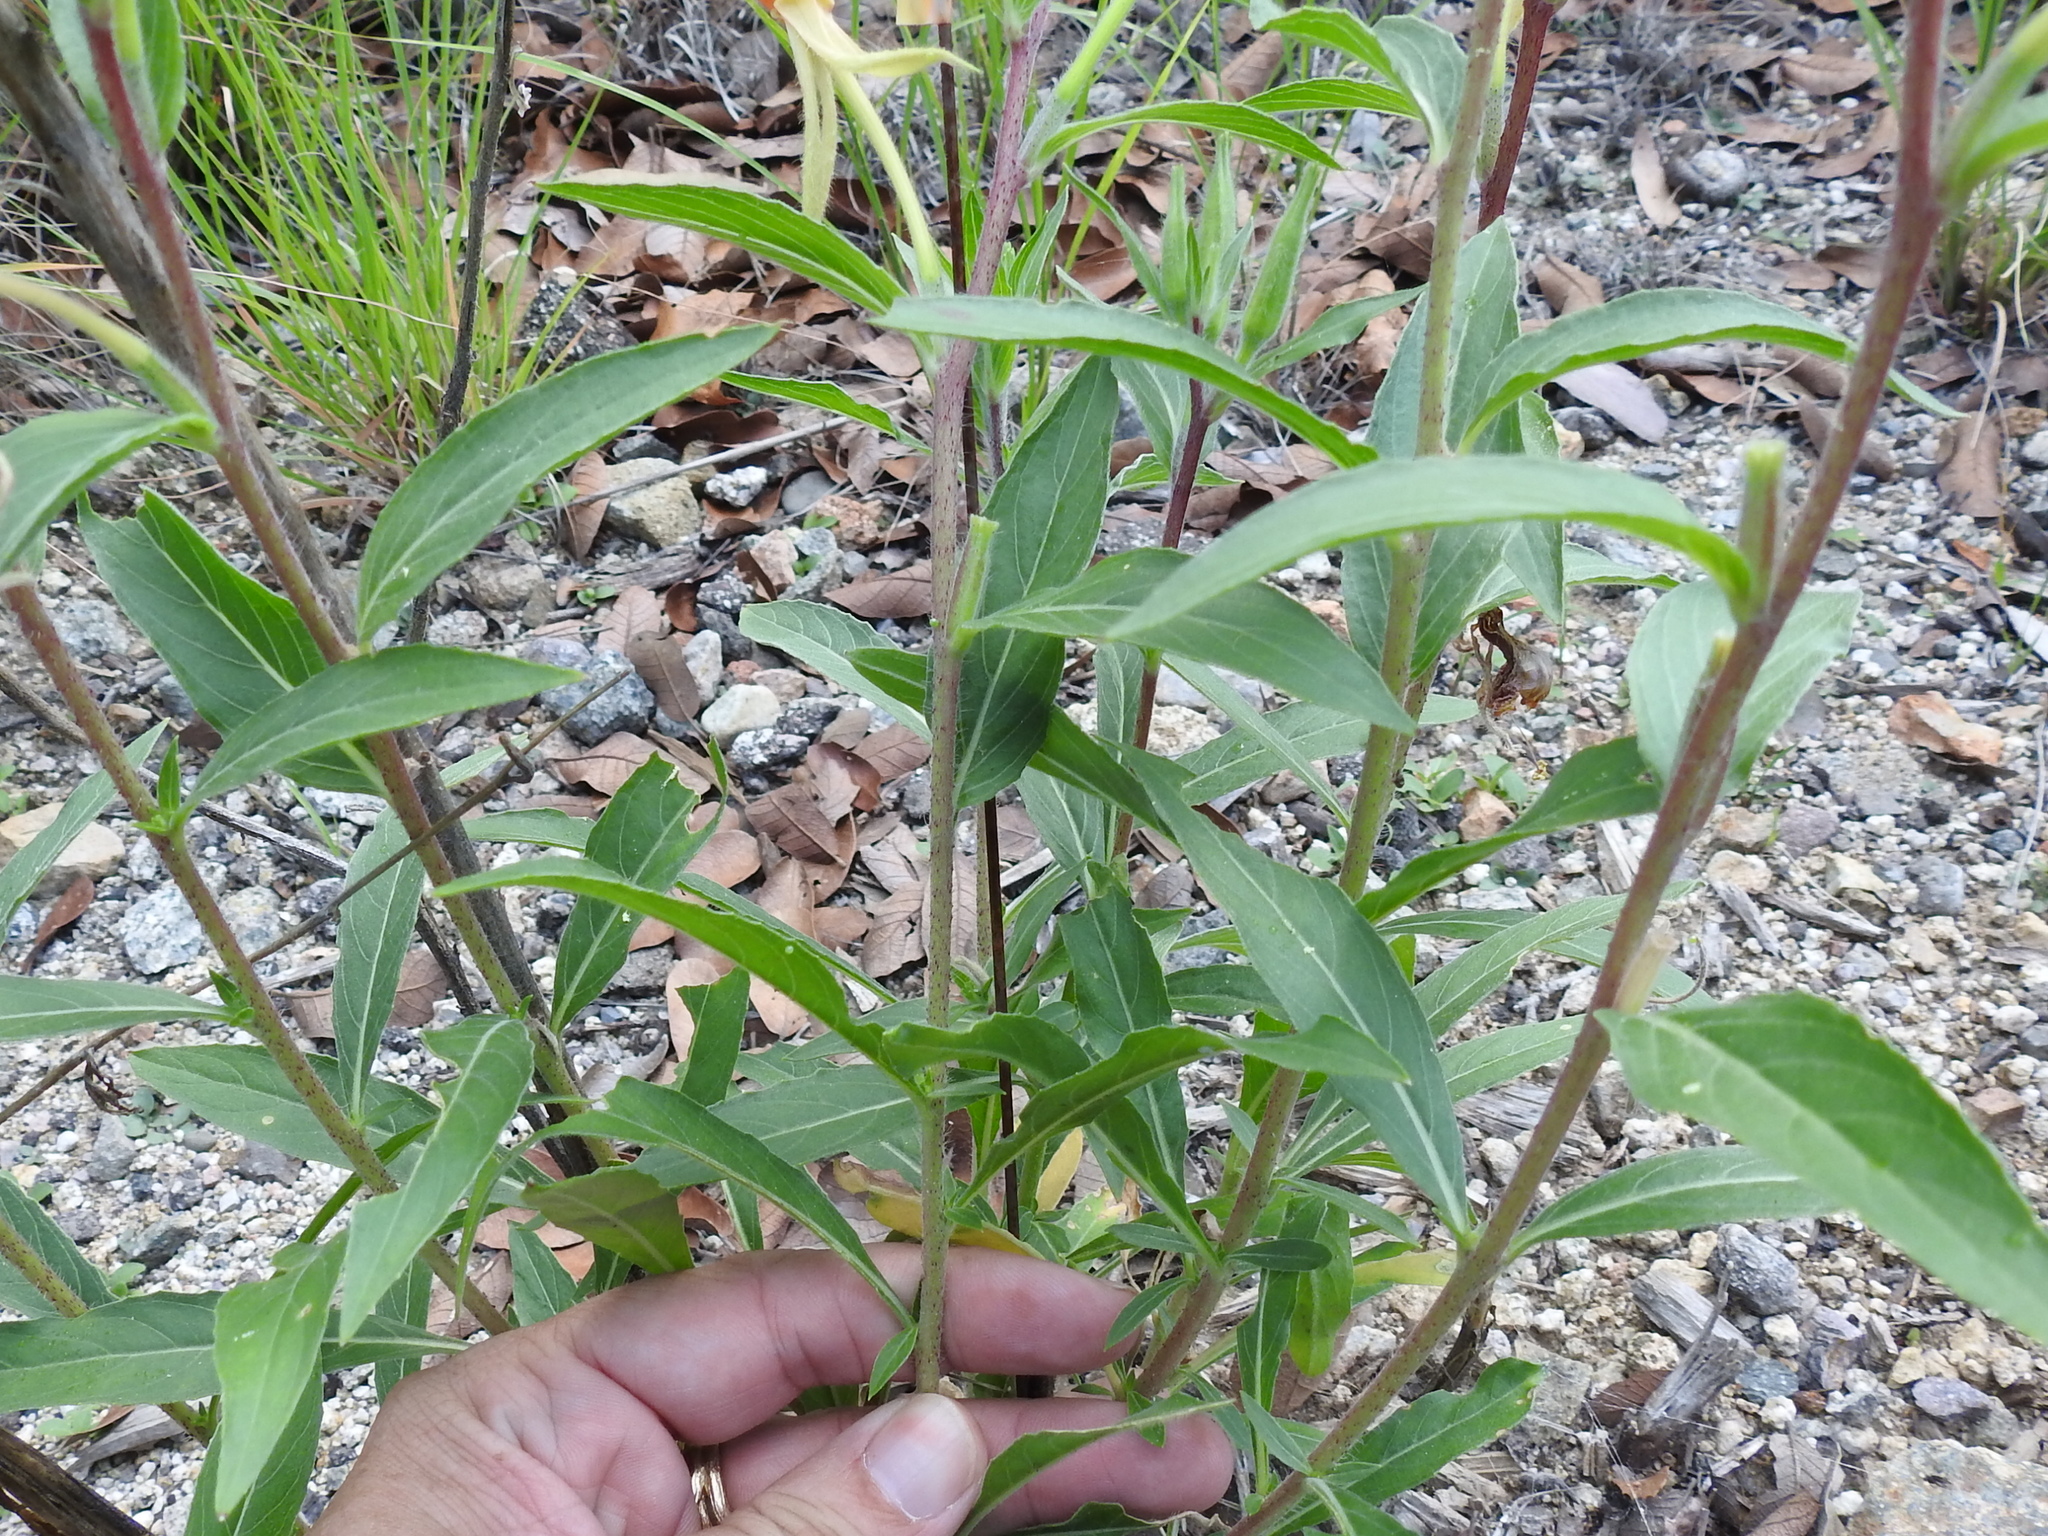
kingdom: Plantae
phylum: Tracheophyta
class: Magnoliopsida
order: Myrtales
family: Onagraceae
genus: Oenothera
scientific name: Oenothera elata
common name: Hooker's evening-primrose
